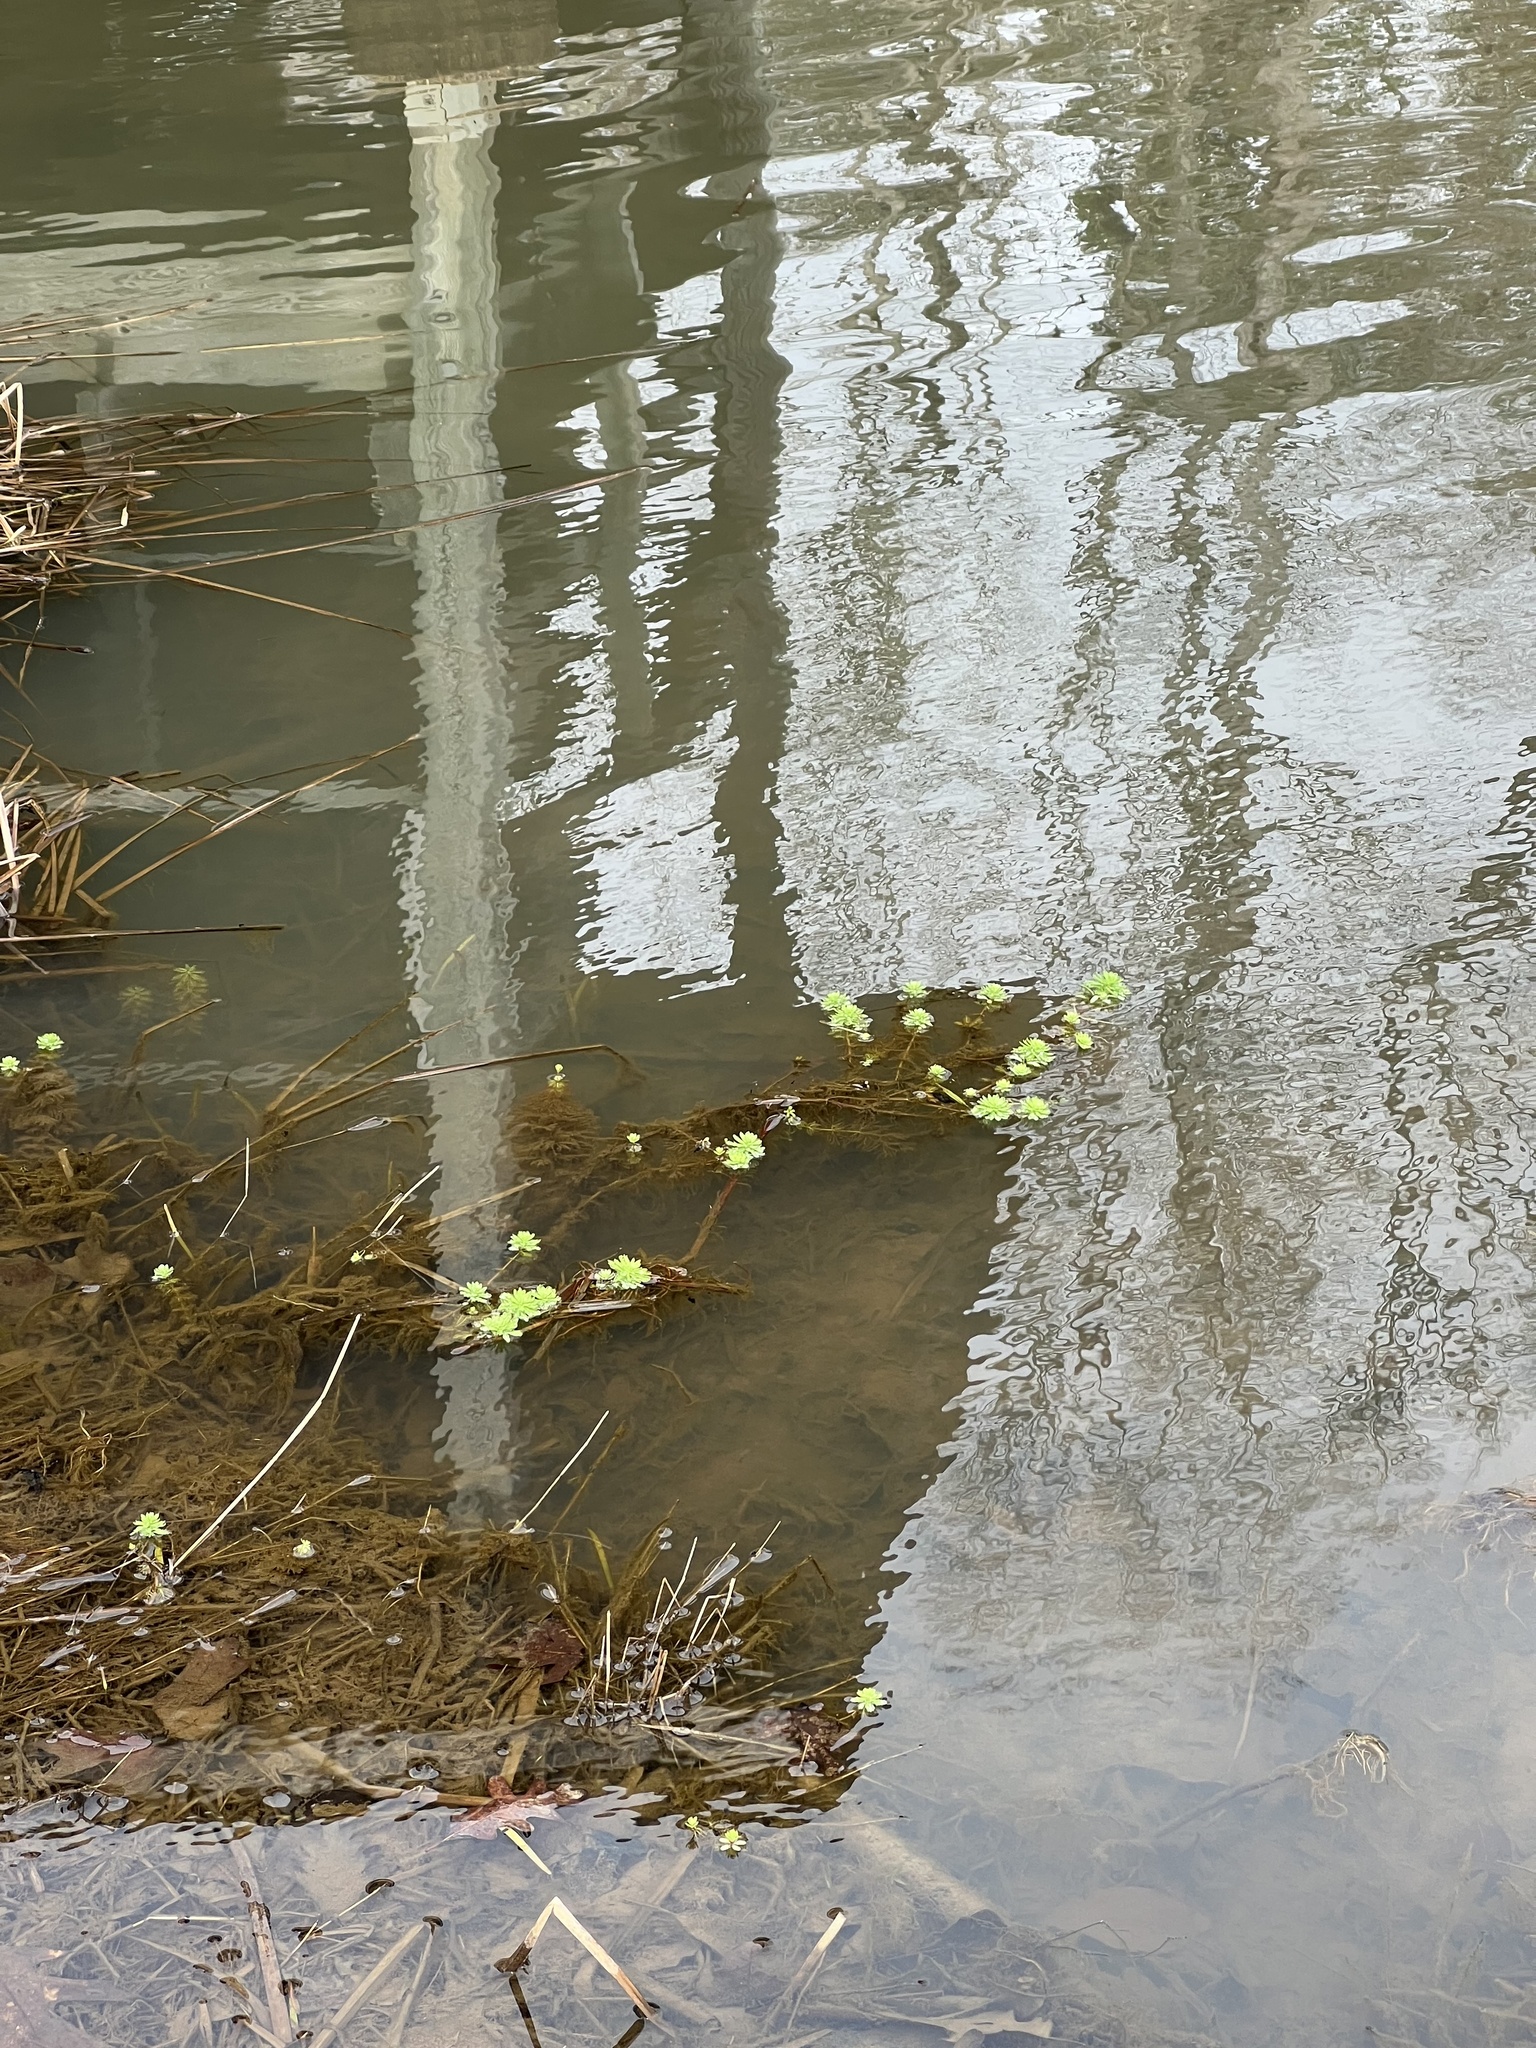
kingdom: Plantae
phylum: Tracheophyta
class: Magnoliopsida
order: Saxifragales
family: Haloragaceae
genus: Myriophyllum
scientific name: Myriophyllum aquaticum
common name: Parrot's feather
